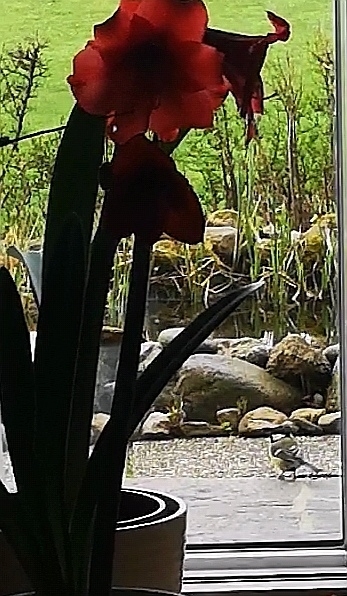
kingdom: Animalia
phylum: Chordata
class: Aves
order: Passeriformes
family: Paridae
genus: Parus
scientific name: Parus major
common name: Great tit
